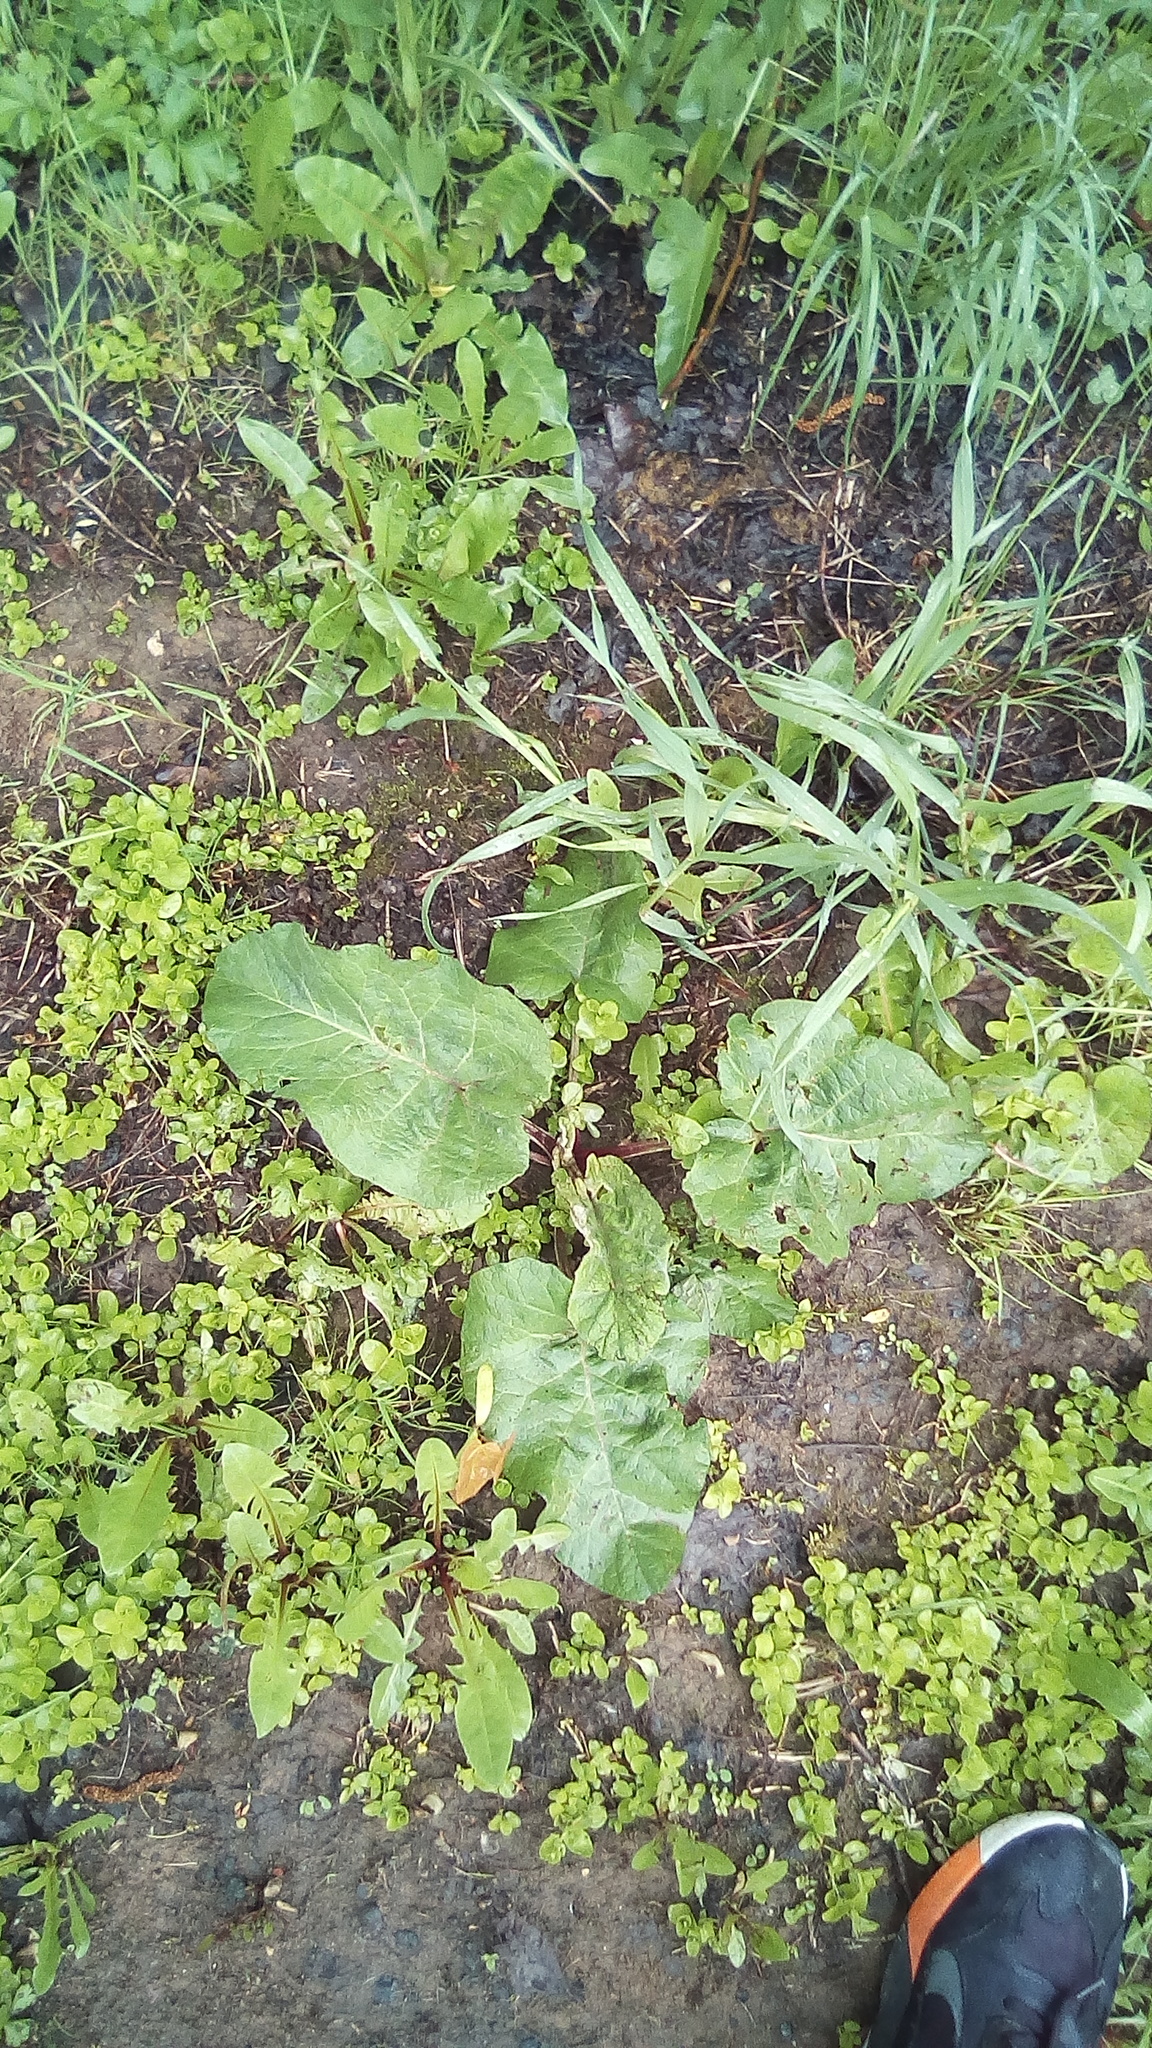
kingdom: Plantae
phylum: Tracheophyta
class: Magnoliopsida
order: Asterales
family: Asteraceae
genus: Arctium
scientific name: Arctium
